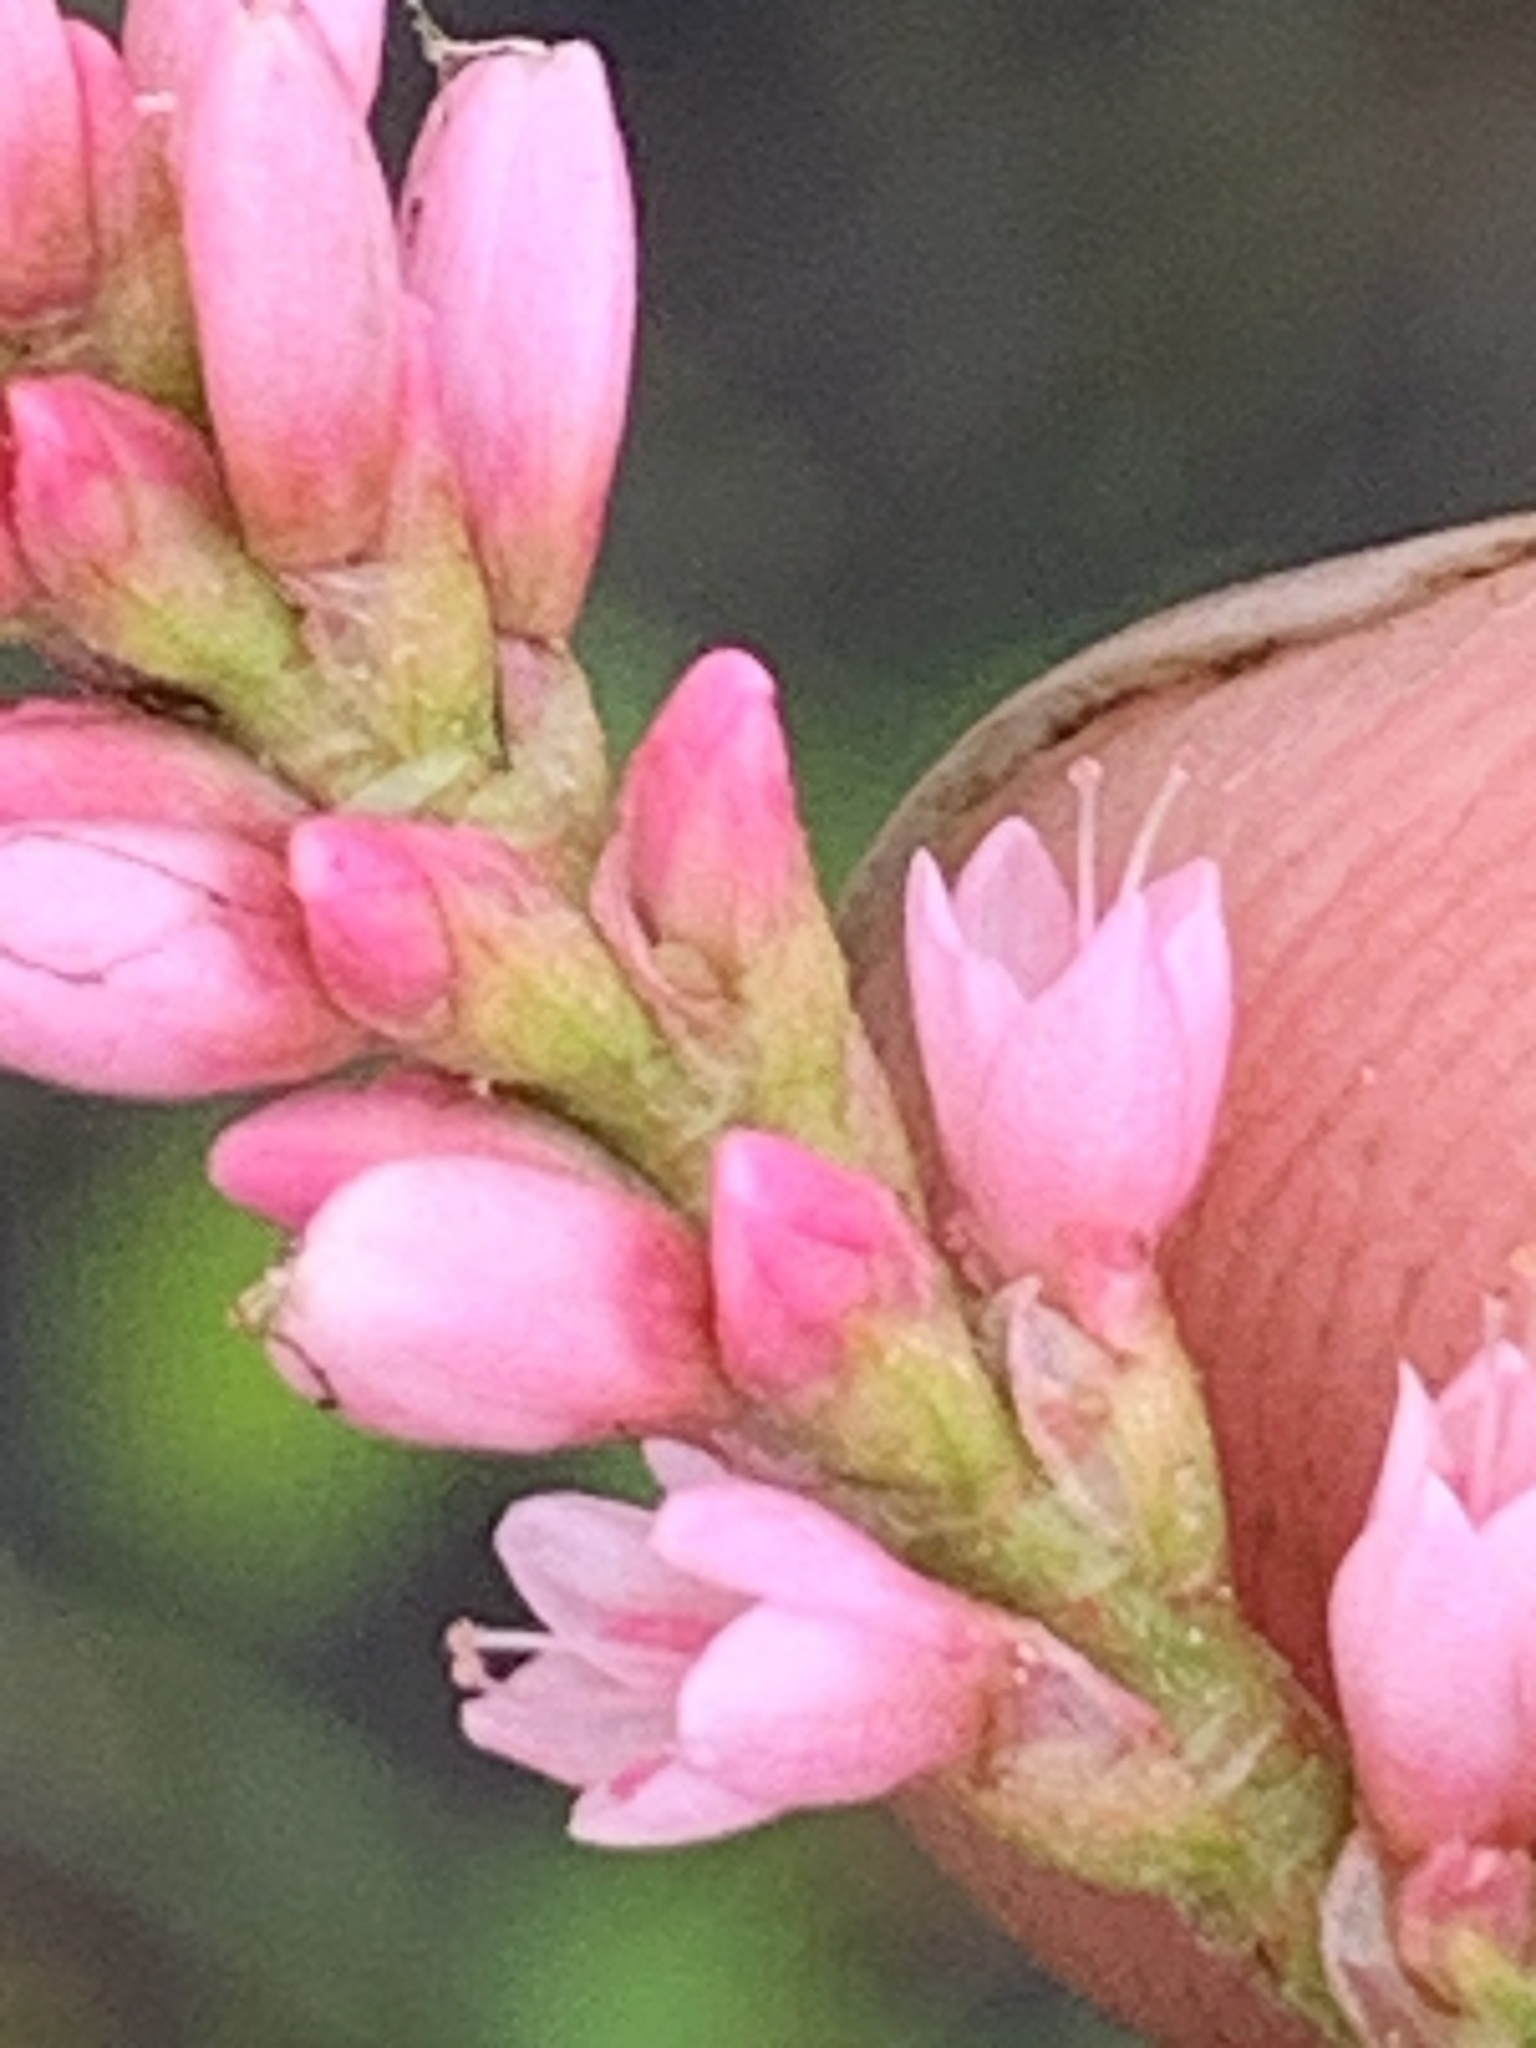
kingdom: Plantae
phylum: Tracheophyta
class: Magnoliopsida
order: Caryophyllales
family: Polygonaceae
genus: Persicaria
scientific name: Persicaria amphibia
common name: Amphibious bistort
